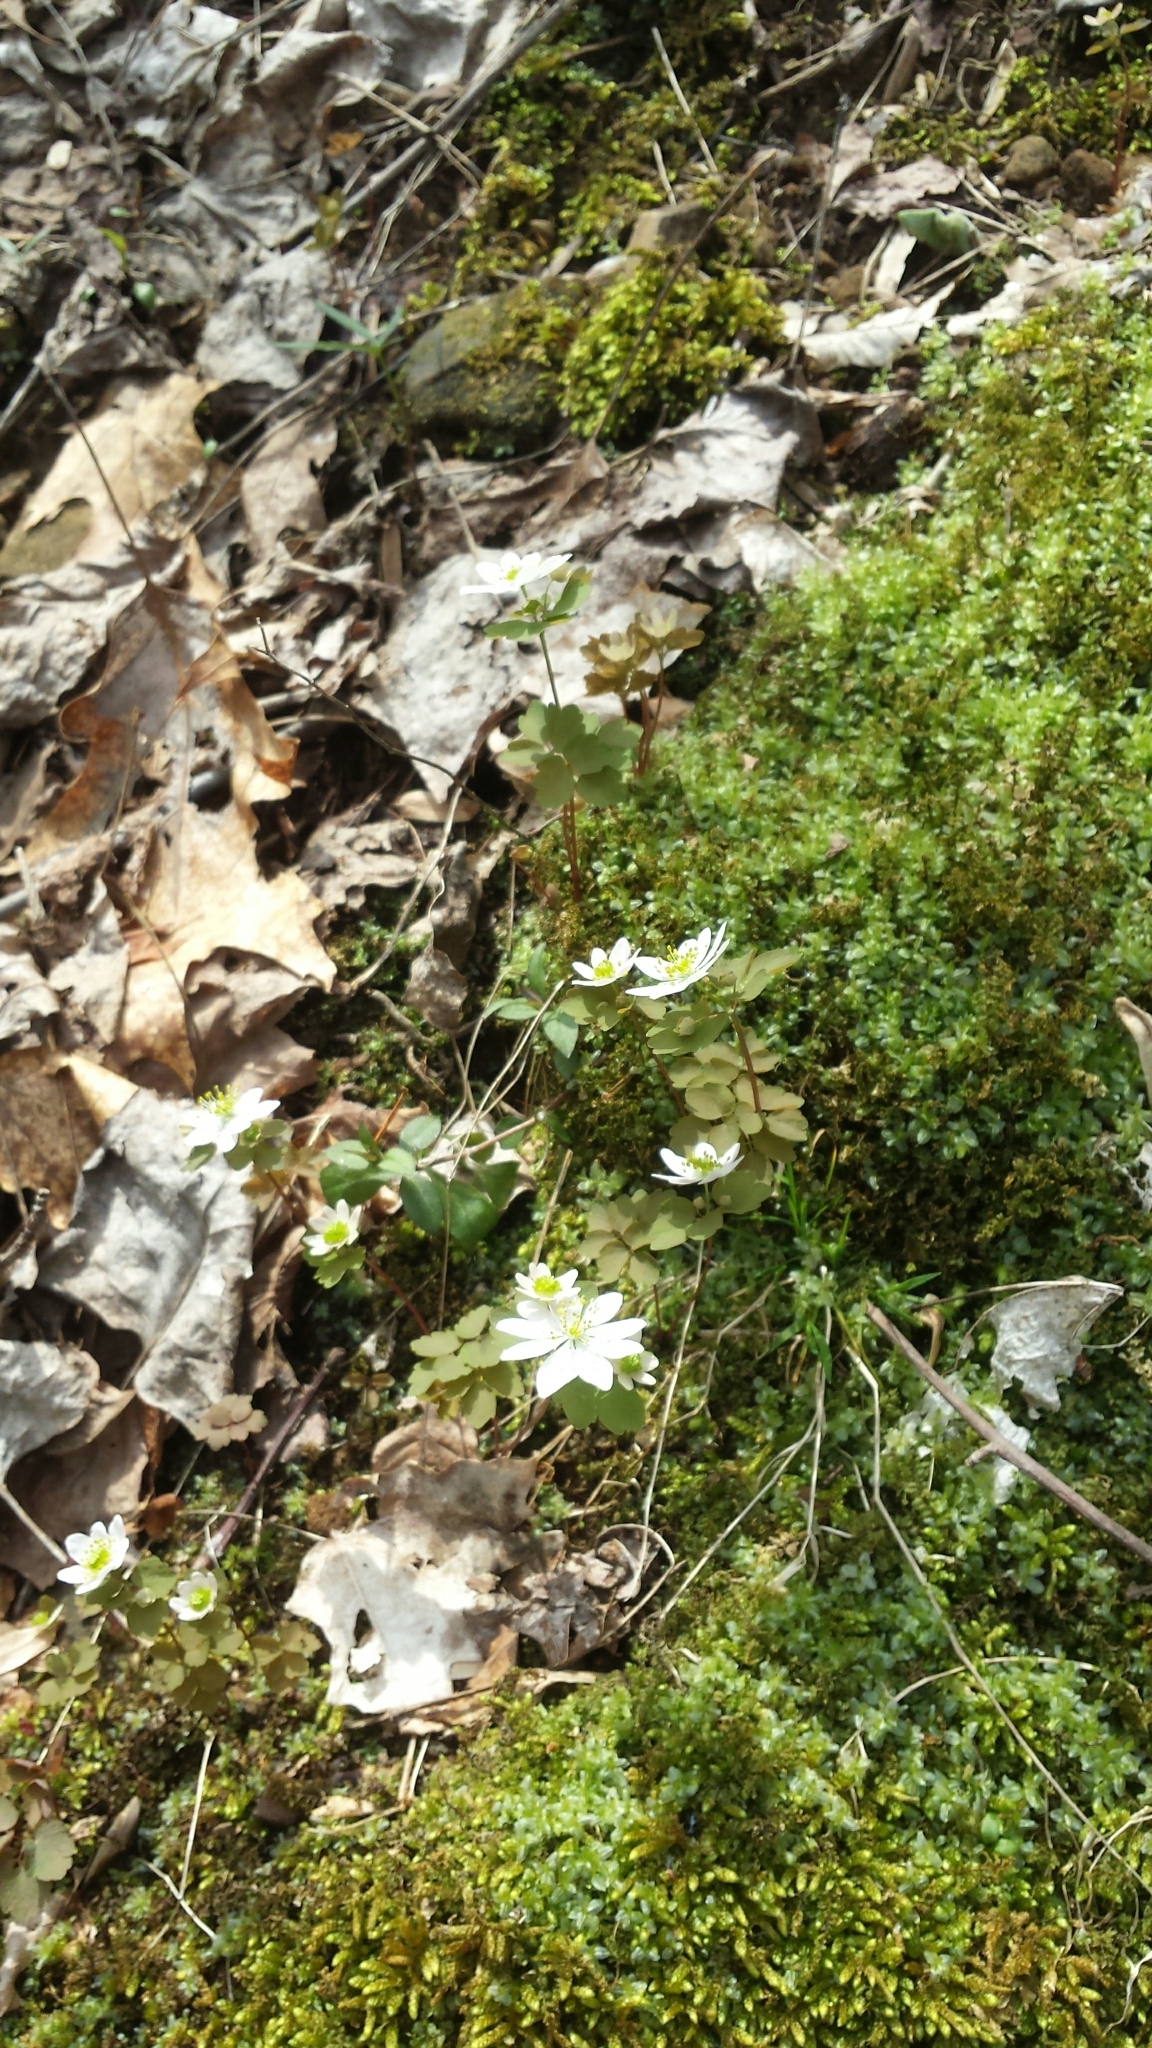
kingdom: Plantae
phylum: Tracheophyta
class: Magnoliopsida
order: Ranunculales
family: Ranunculaceae
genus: Thalictrum
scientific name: Thalictrum thalictroides
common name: Rue-anemone
